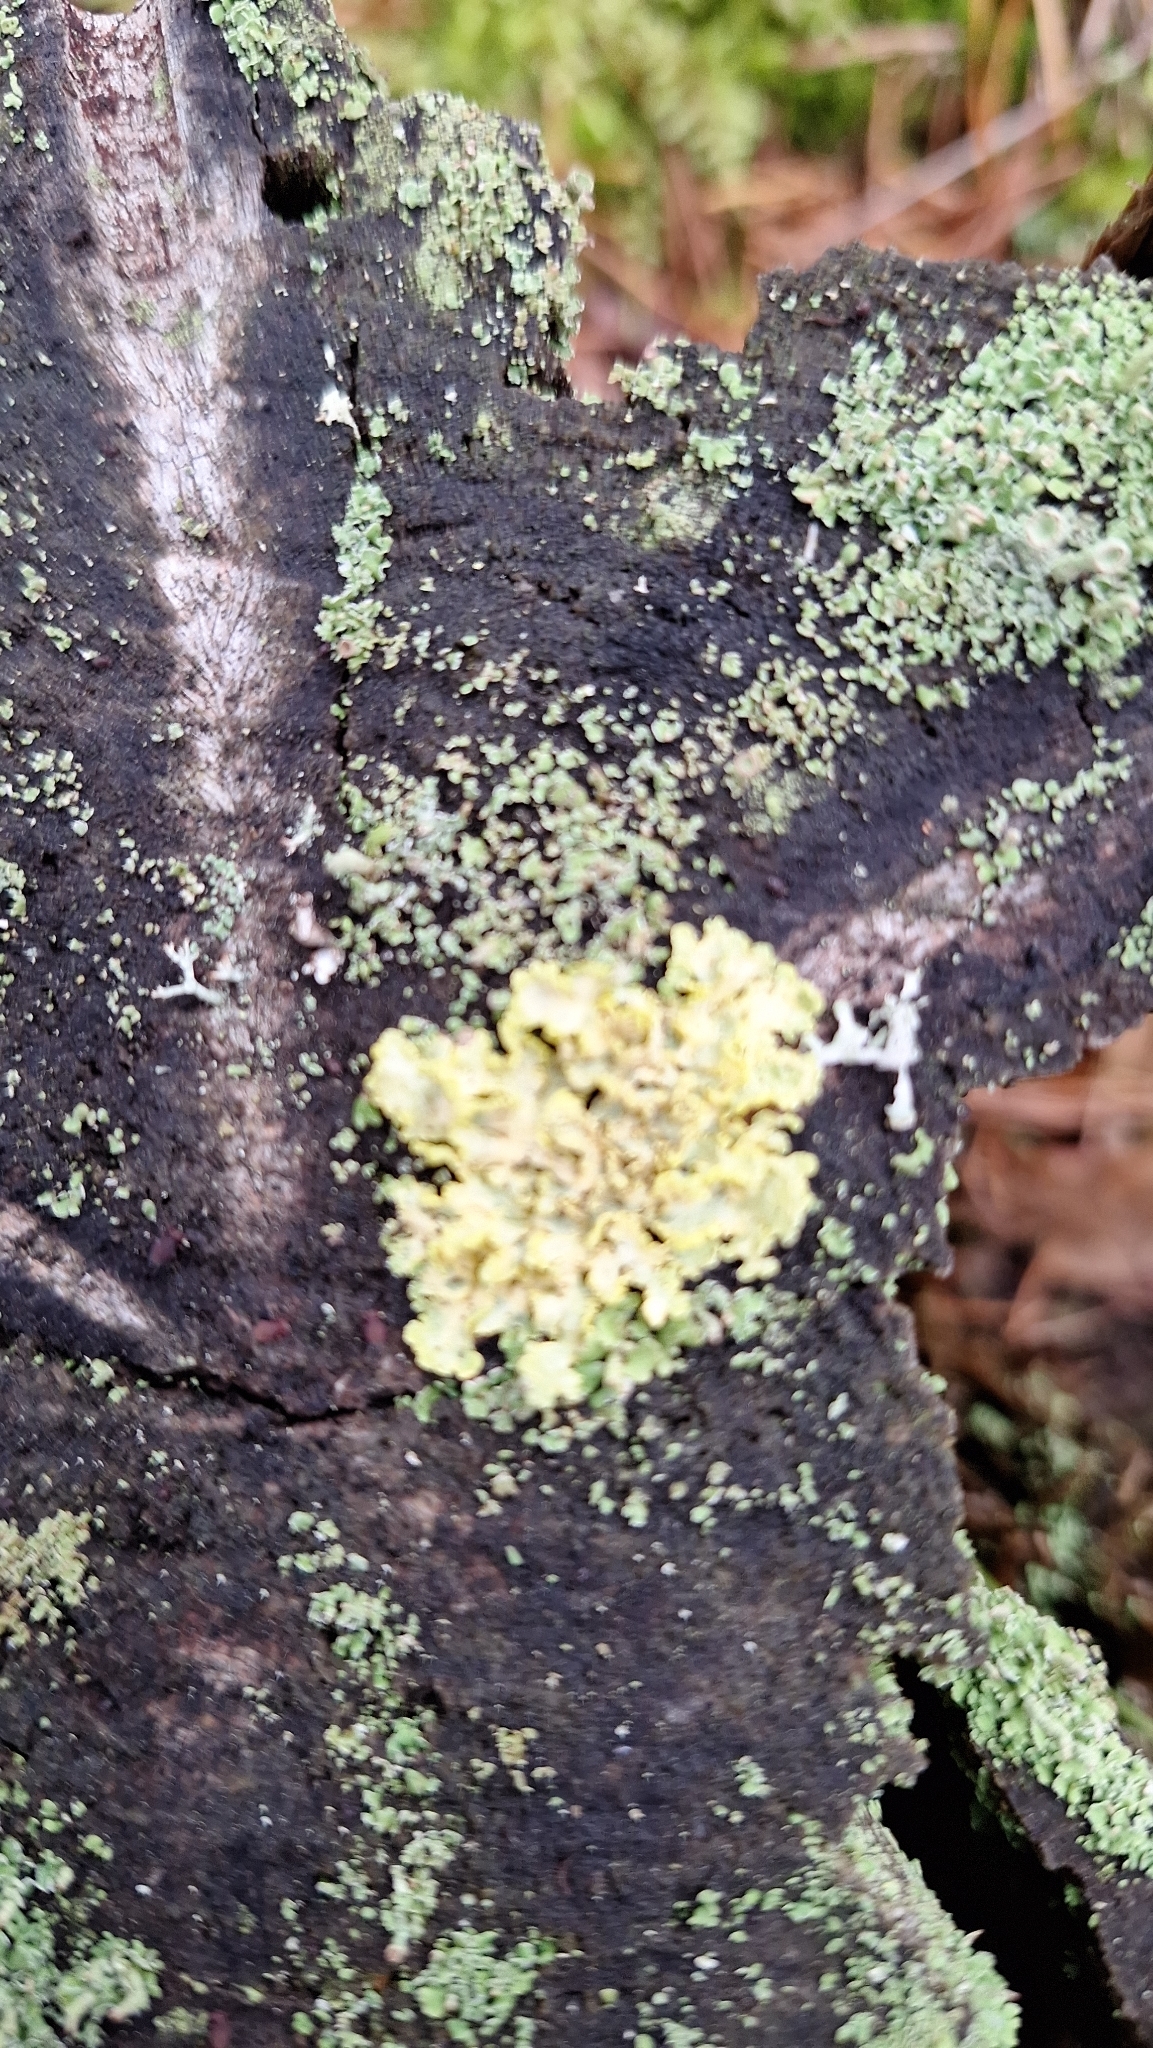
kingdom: Fungi
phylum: Ascomycota
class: Lecanoromycetes
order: Lecanorales
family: Parmeliaceae
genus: Vulpicida
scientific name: Vulpicida pinastri
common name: Powdered sunshine lichen
